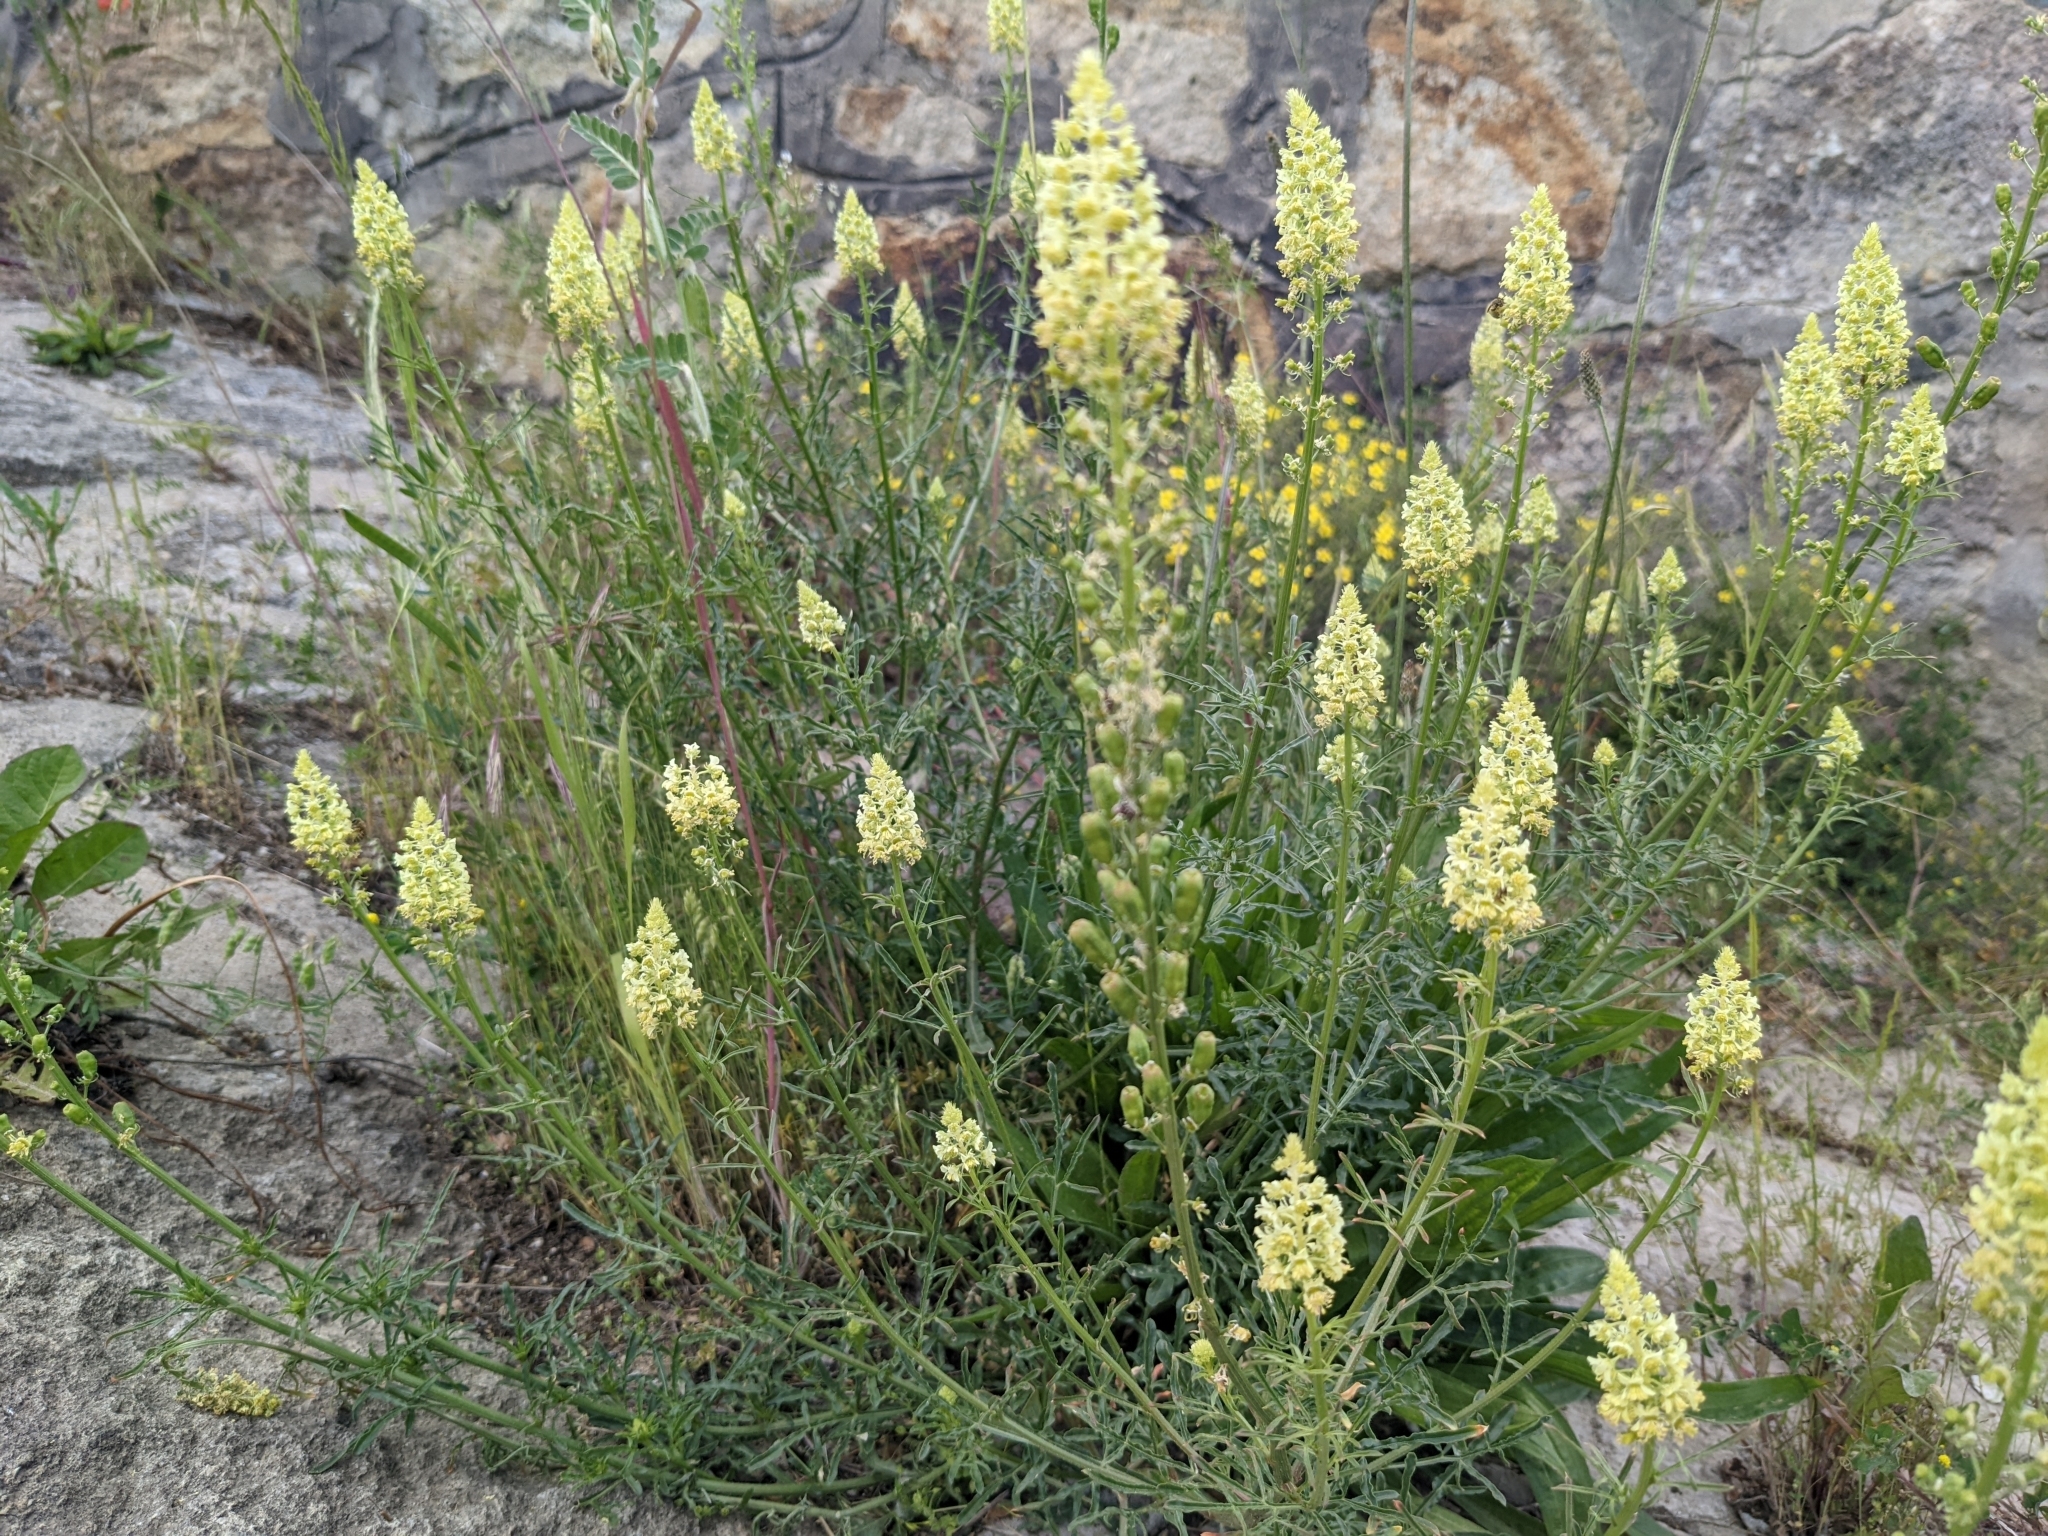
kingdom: Plantae
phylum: Tracheophyta
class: Magnoliopsida
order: Brassicales
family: Resedaceae
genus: Reseda
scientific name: Reseda lutea
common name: Wild mignonette
